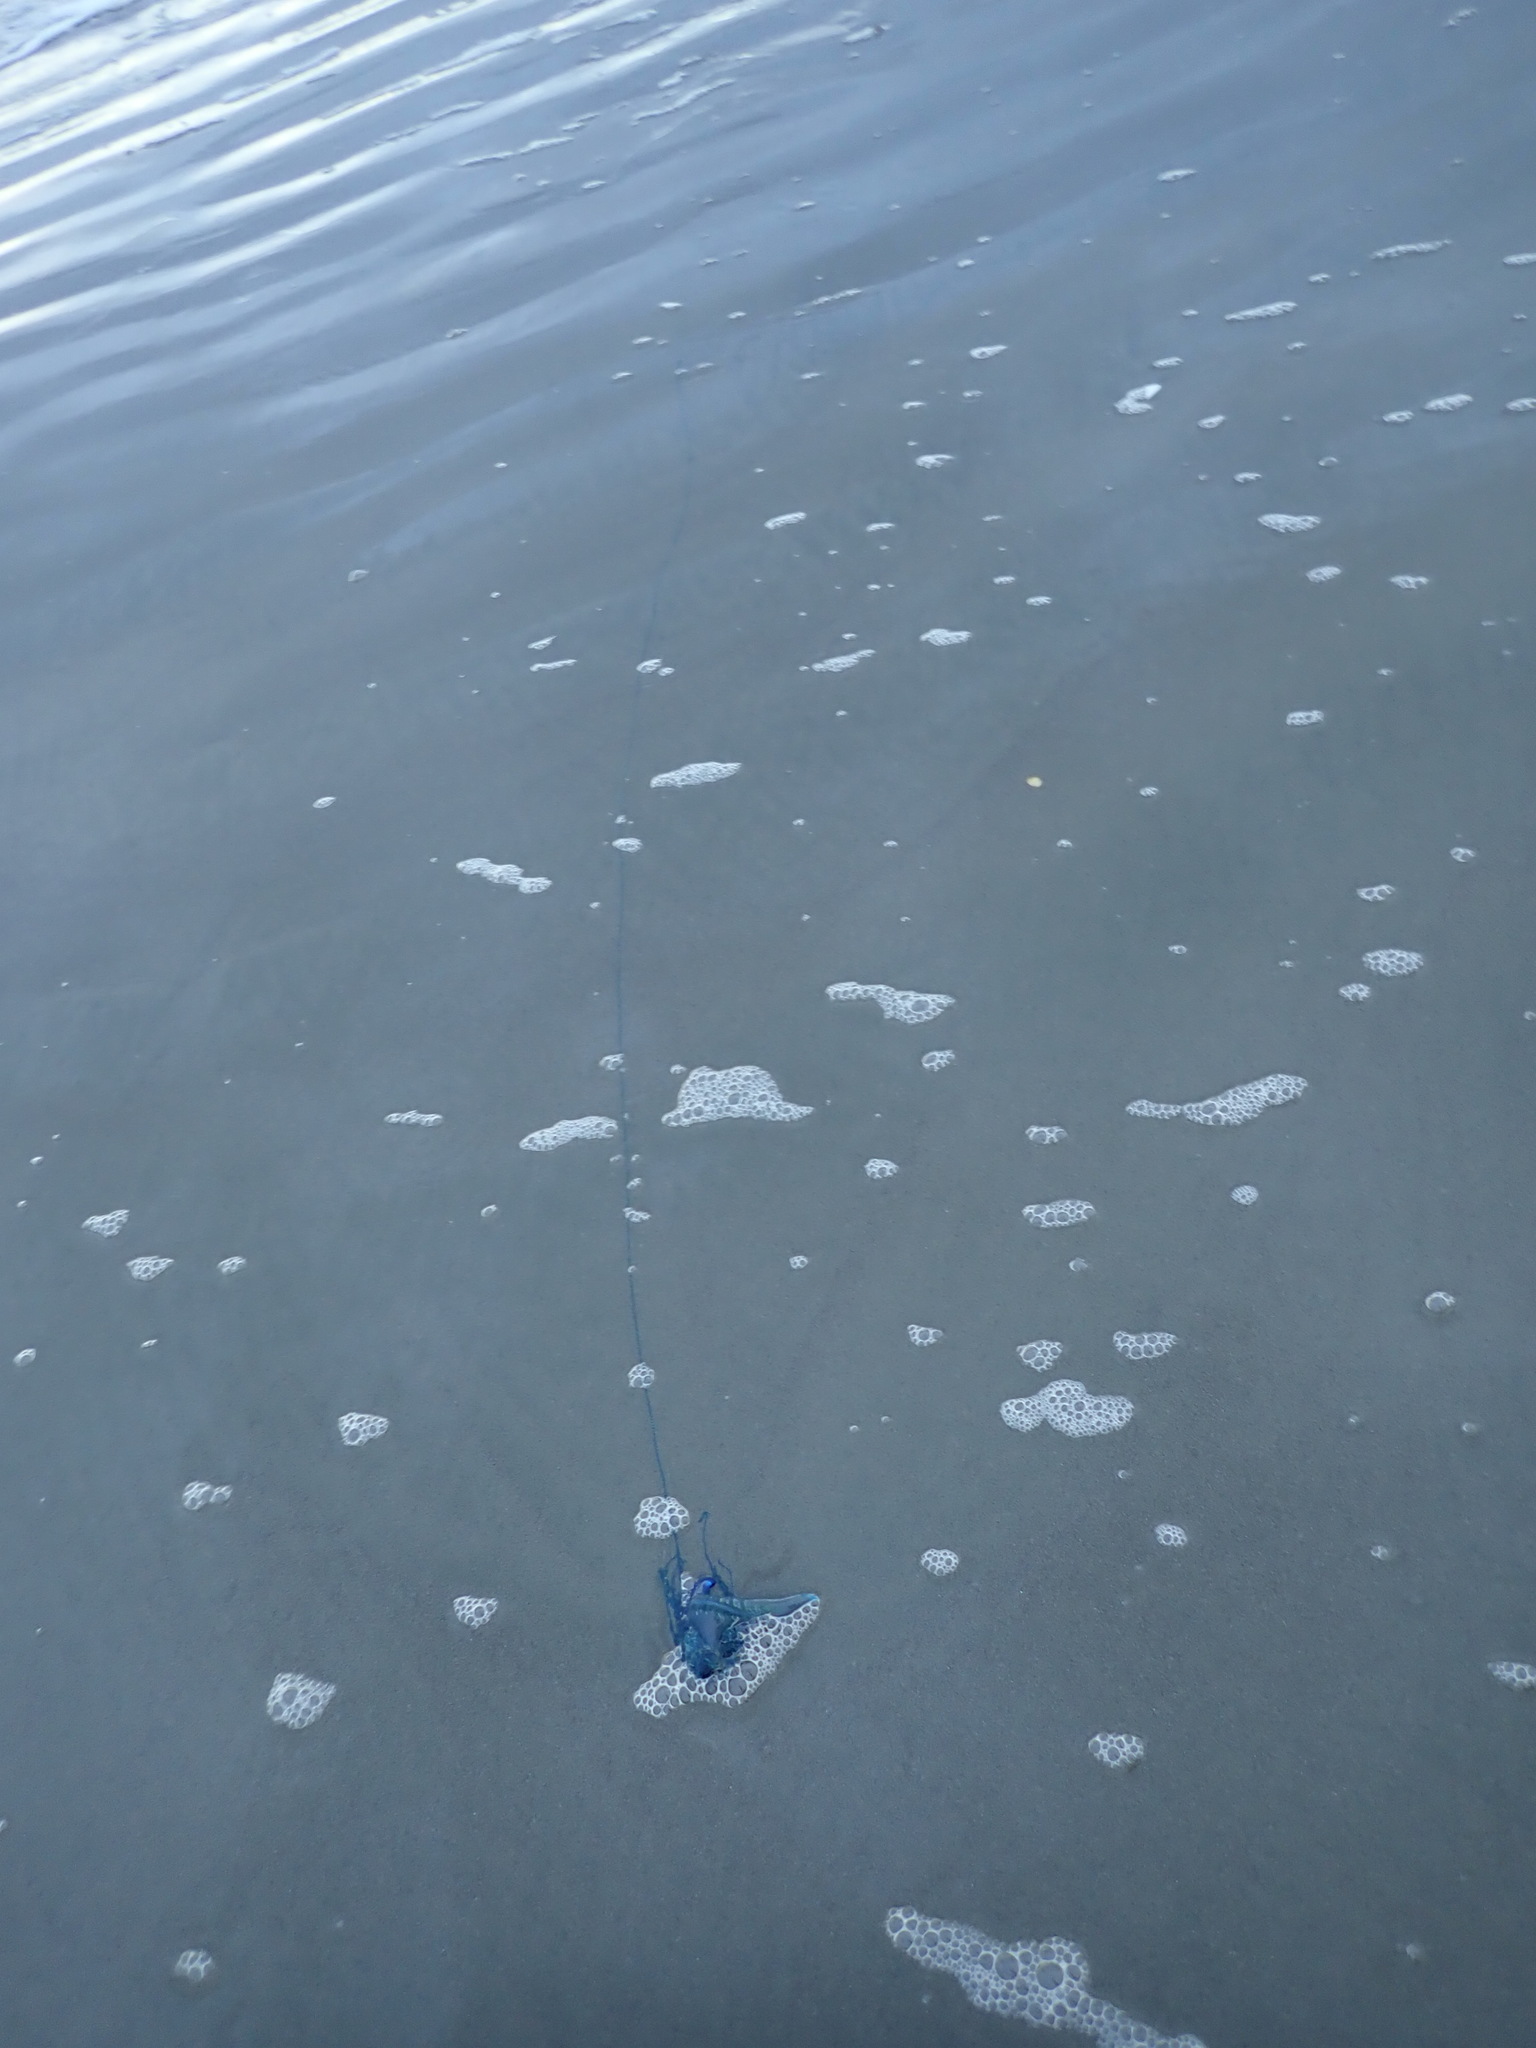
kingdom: Animalia
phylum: Cnidaria
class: Hydrozoa
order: Siphonophorae
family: Physaliidae
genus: Physalia
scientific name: Physalia physalis
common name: Portuguese man-of-war
